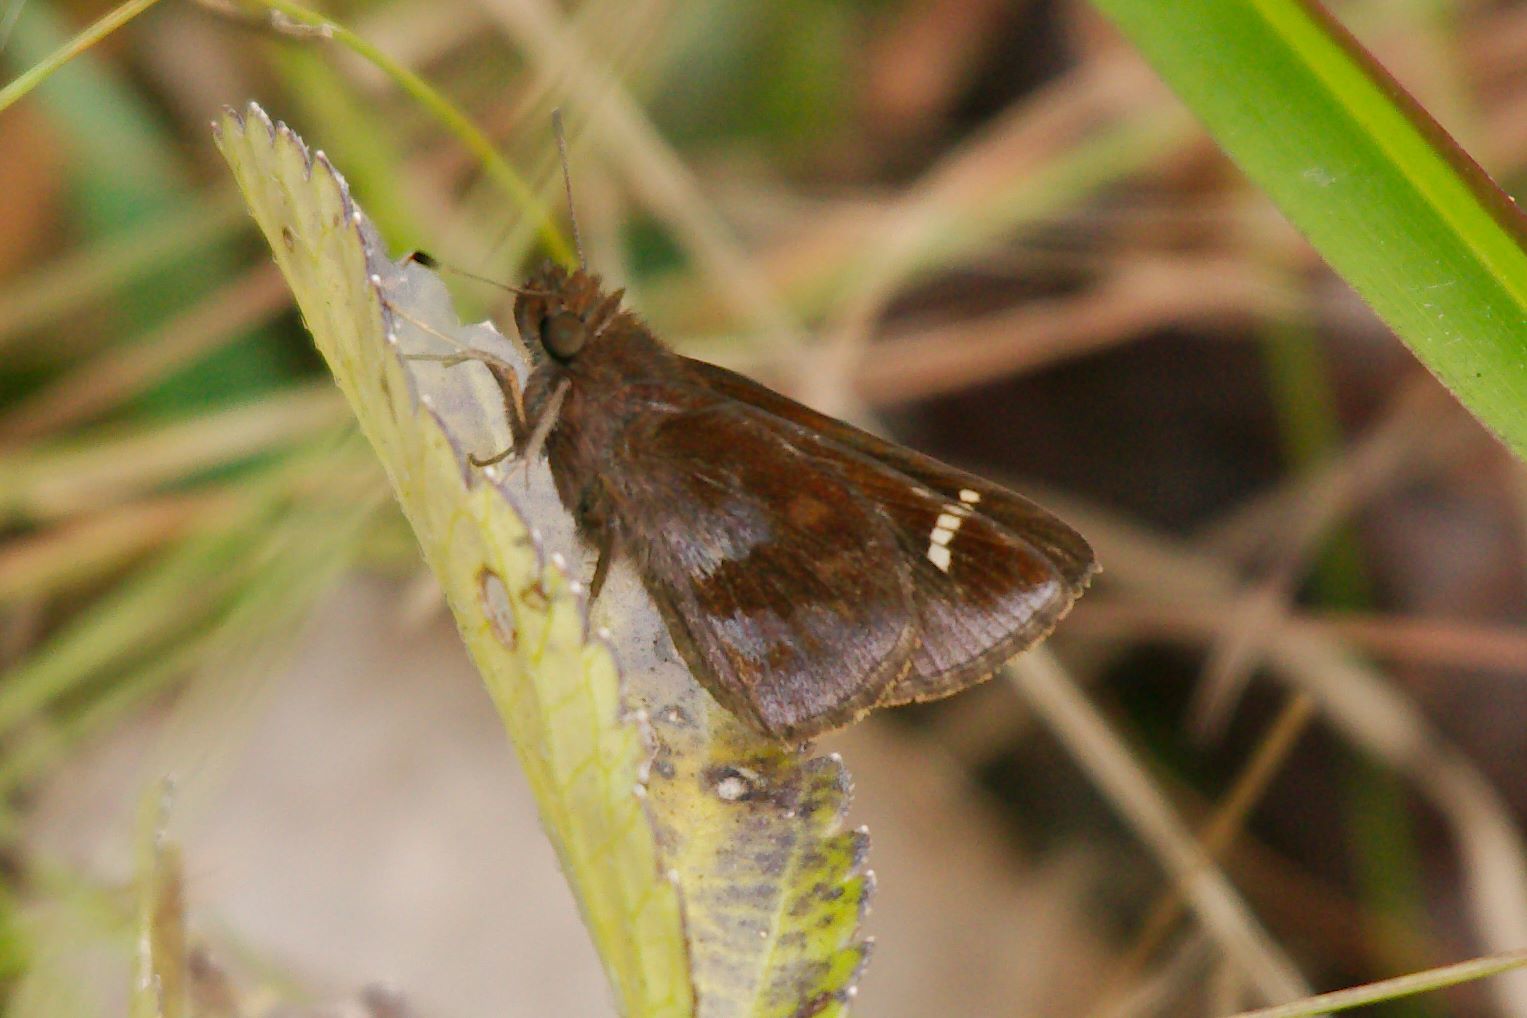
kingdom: Animalia
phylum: Arthropoda
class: Insecta
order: Lepidoptera
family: Hesperiidae
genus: Lerema
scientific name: Lerema accius
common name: Clouded skipper
